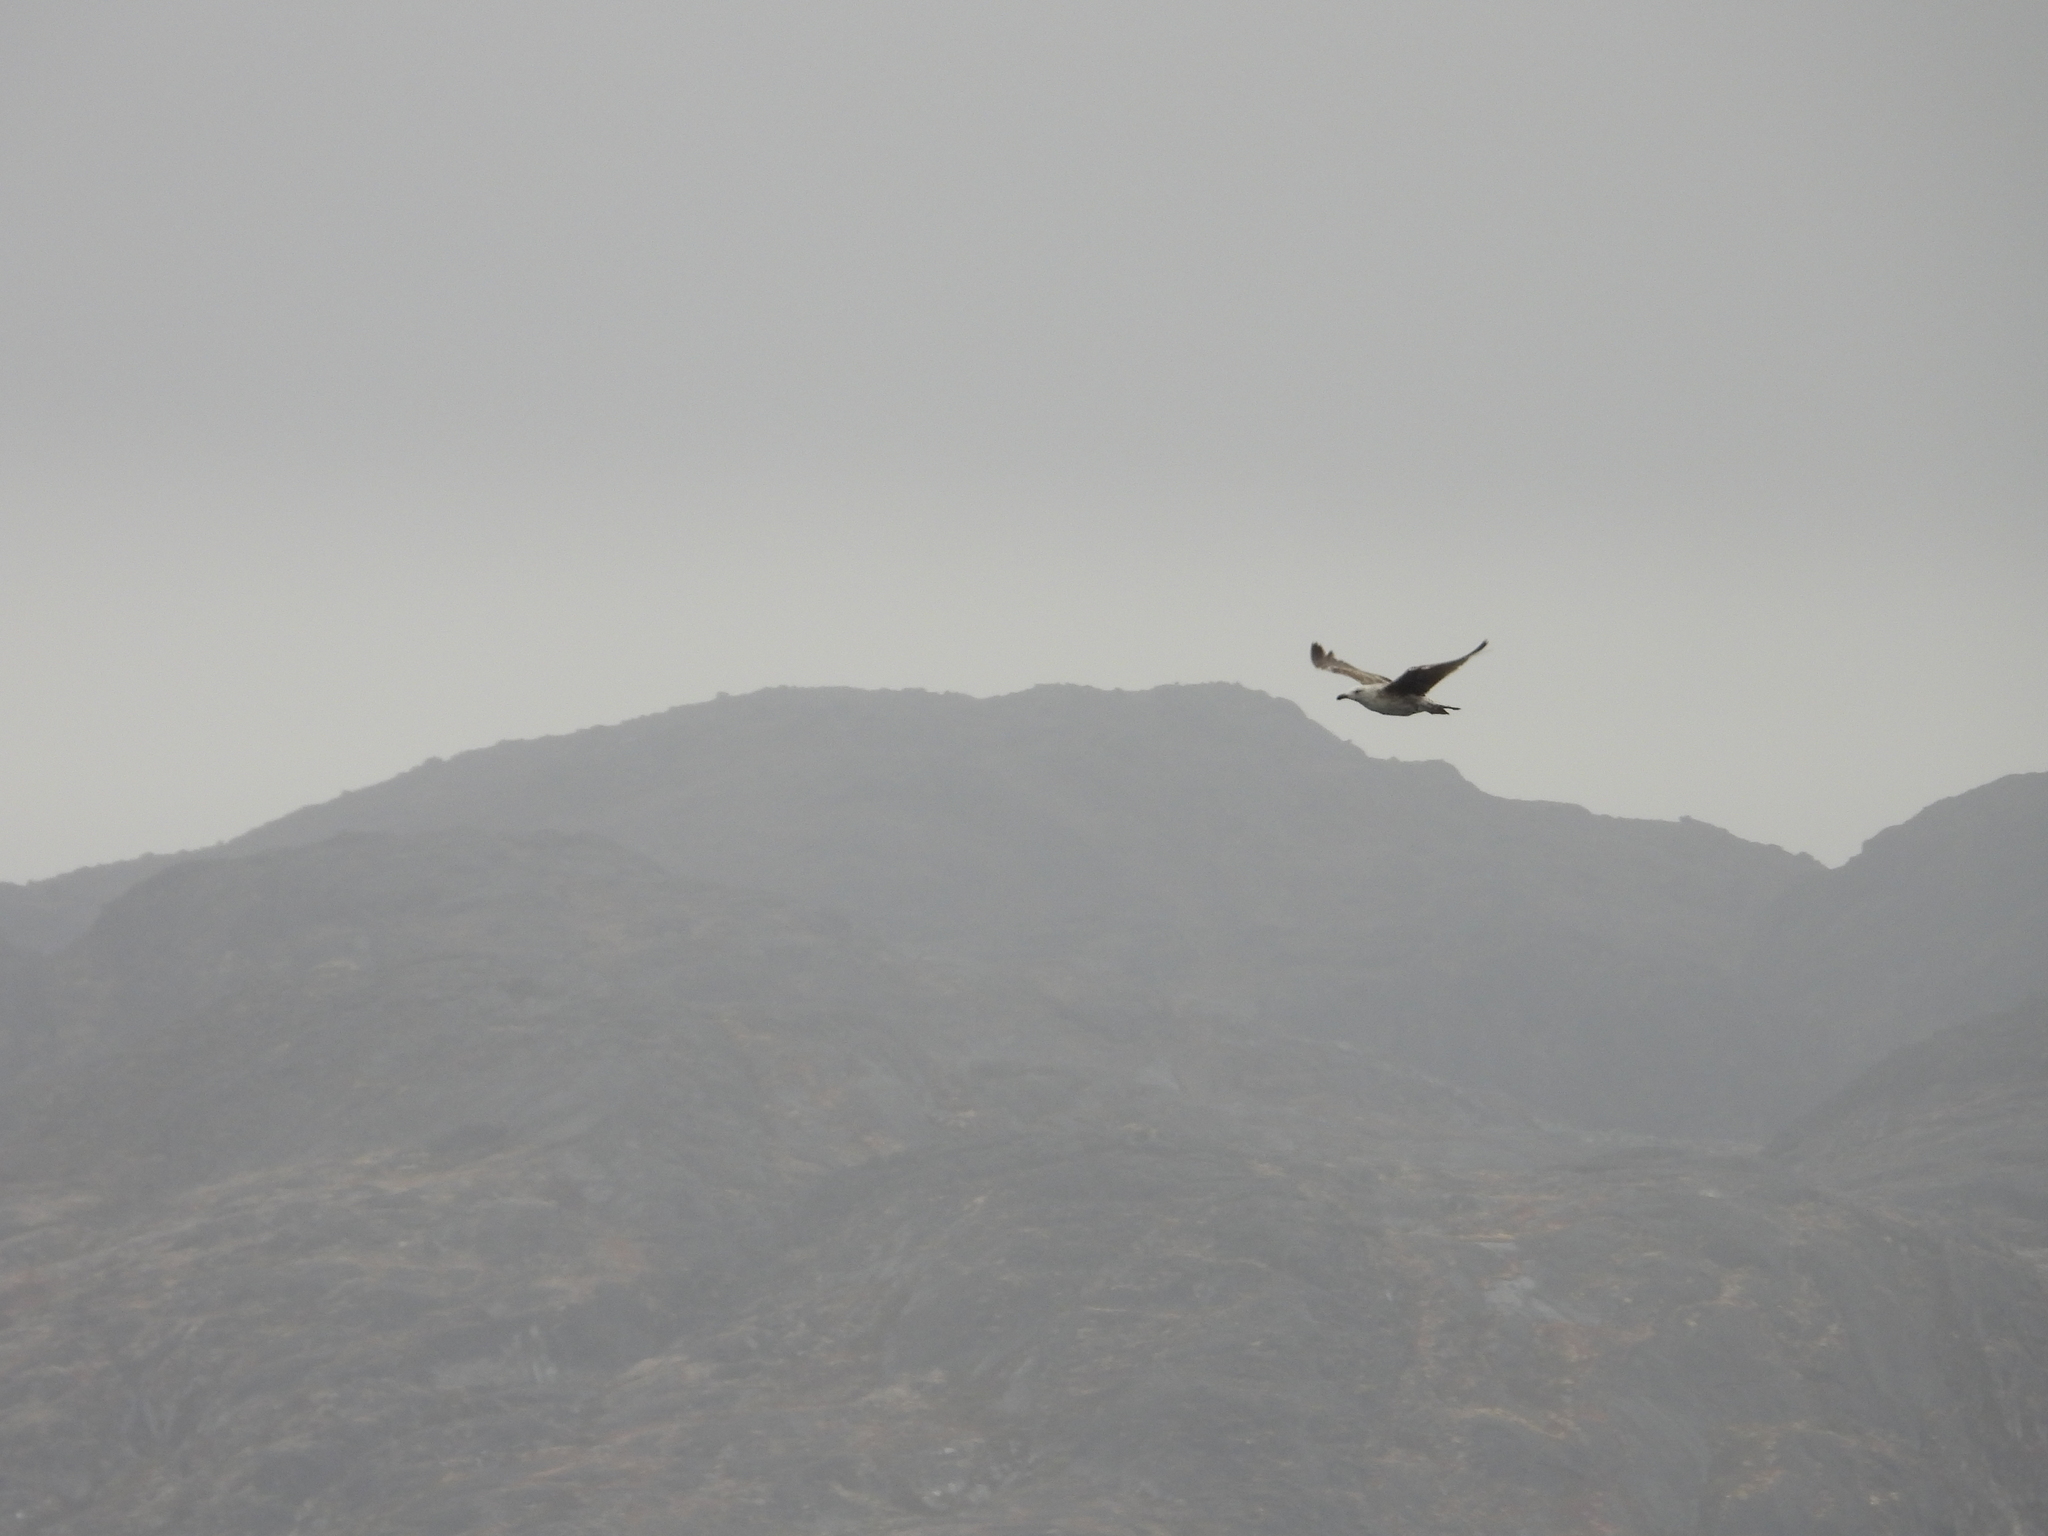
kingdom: Animalia
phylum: Chordata
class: Aves
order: Charadriiformes
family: Laridae
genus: Larus
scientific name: Larus marinus
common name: Great black-backed gull
